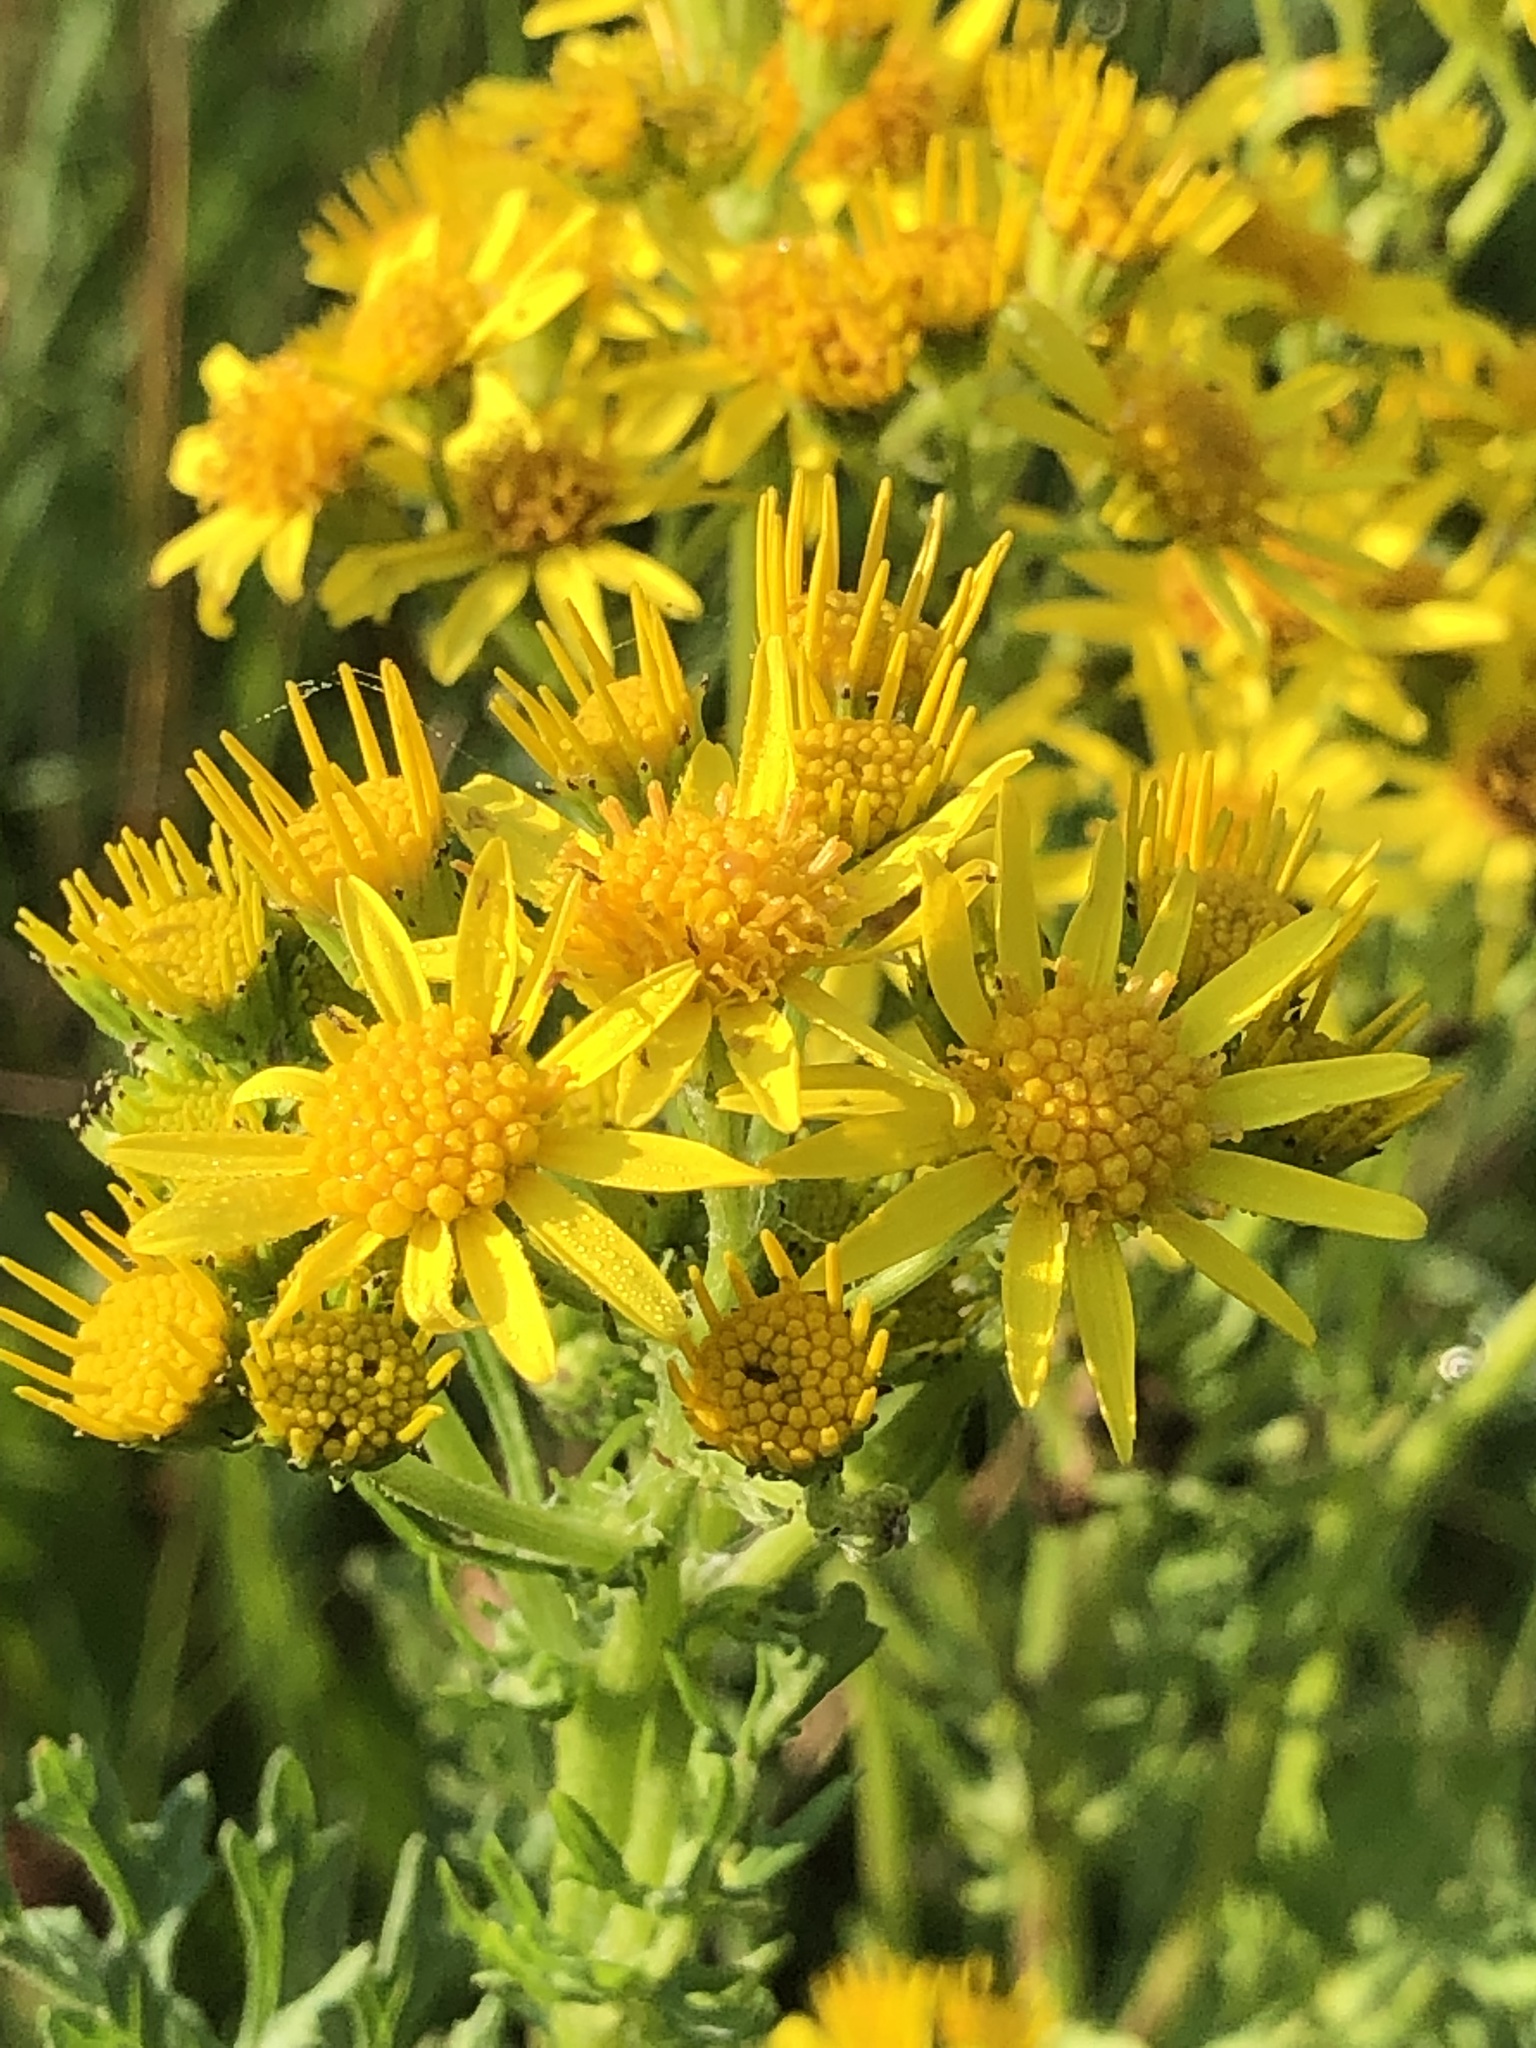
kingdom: Plantae
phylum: Tracheophyta
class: Magnoliopsida
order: Asterales
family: Asteraceae
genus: Jacobaea
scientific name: Jacobaea vulgaris
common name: Stinking willie
